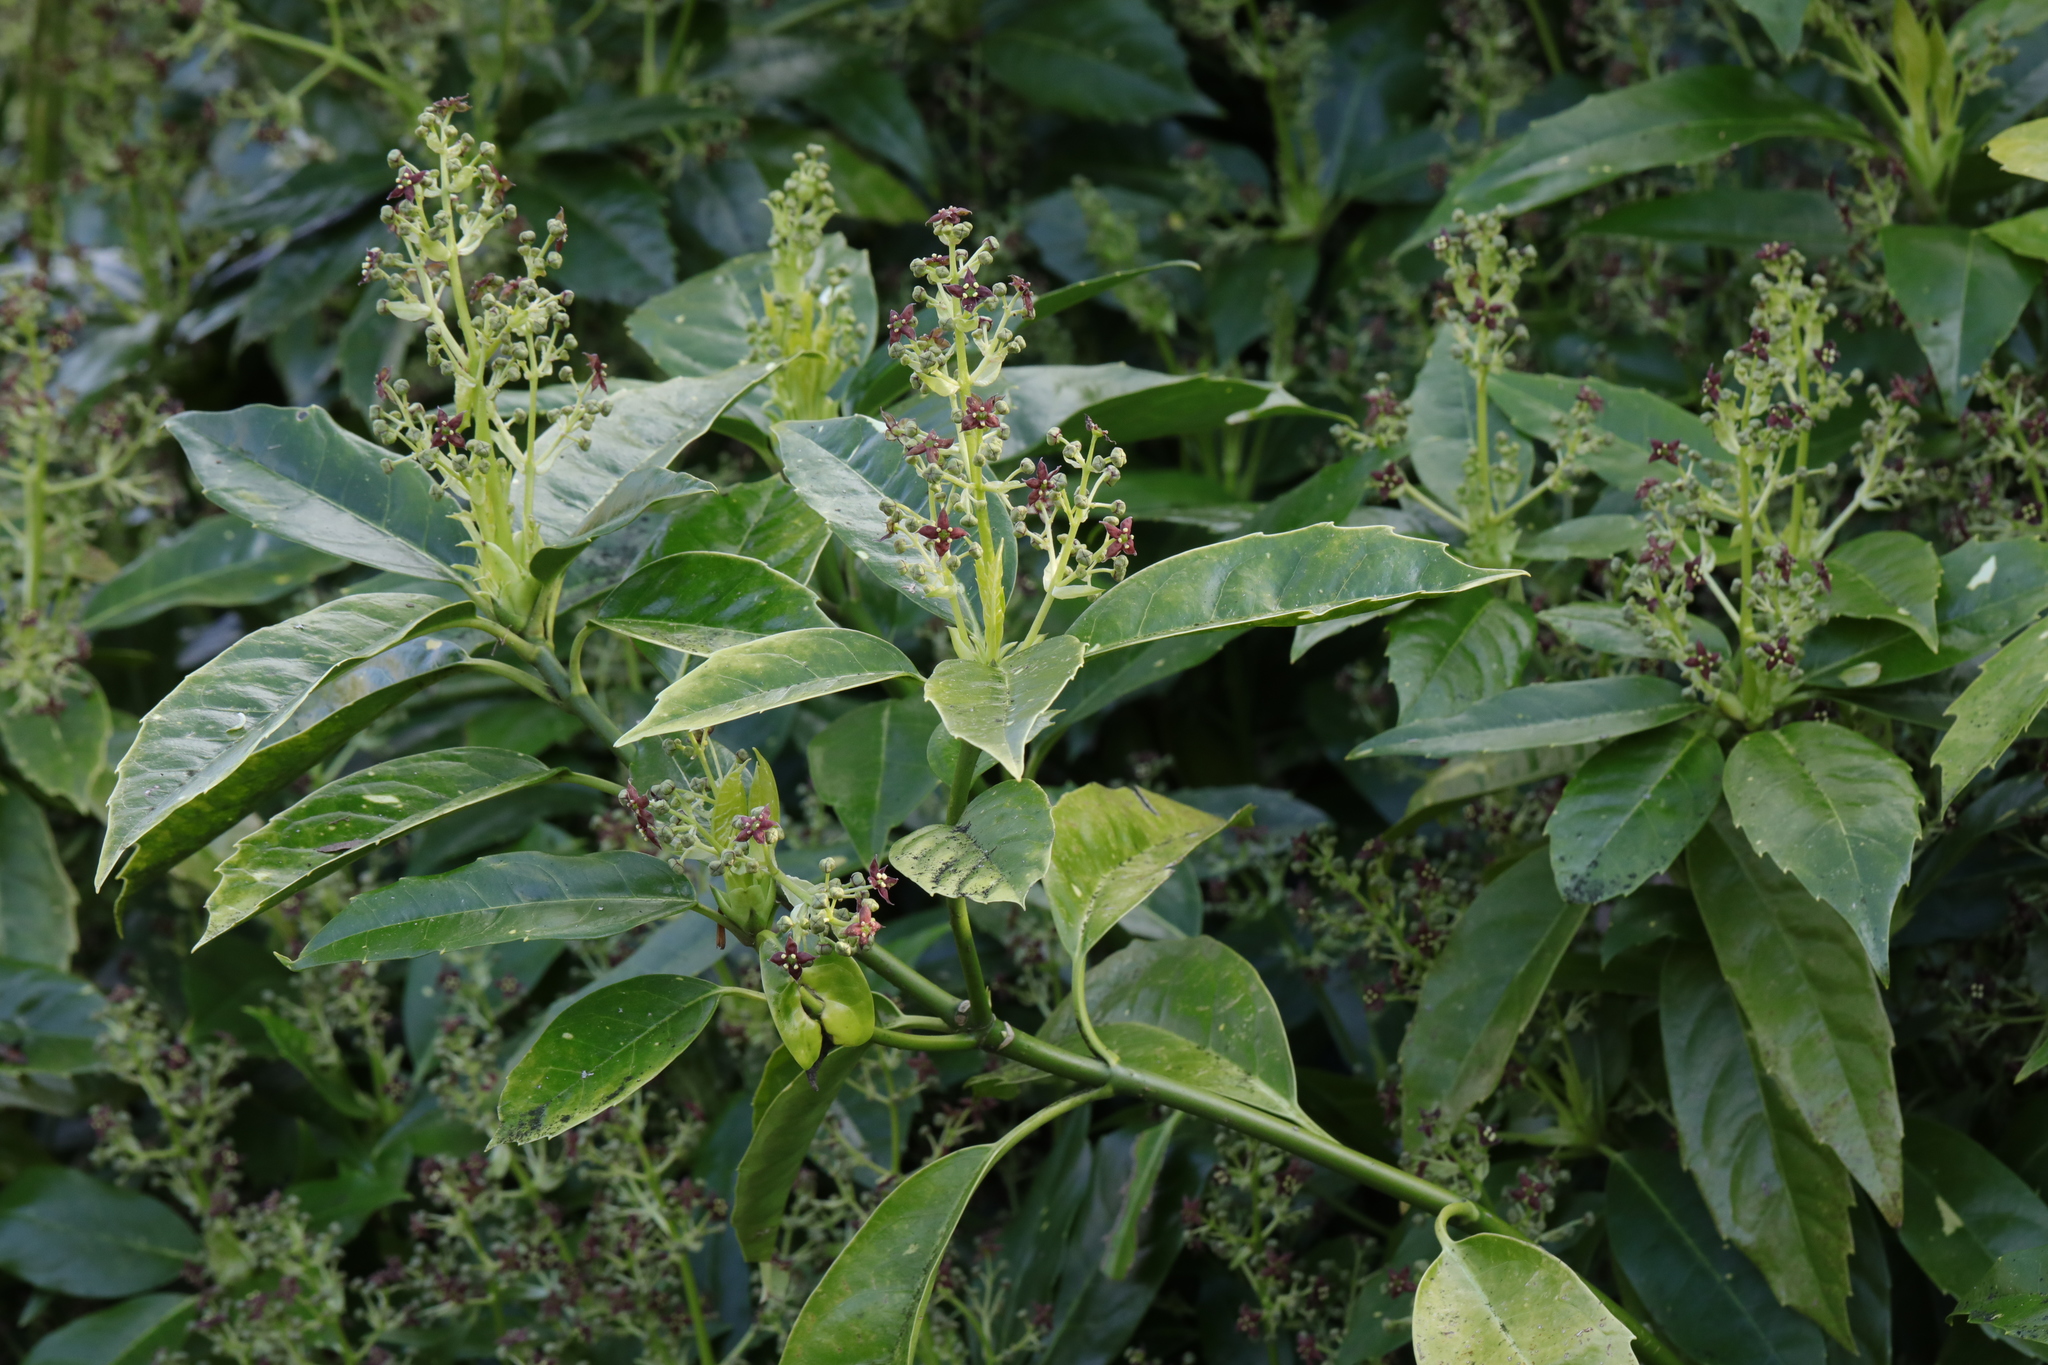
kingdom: Plantae
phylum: Tracheophyta
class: Magnoliopsida
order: Rosales
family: Rosaceae
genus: Prunus
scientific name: Prunus laurocerasus
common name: Cherry laurel
